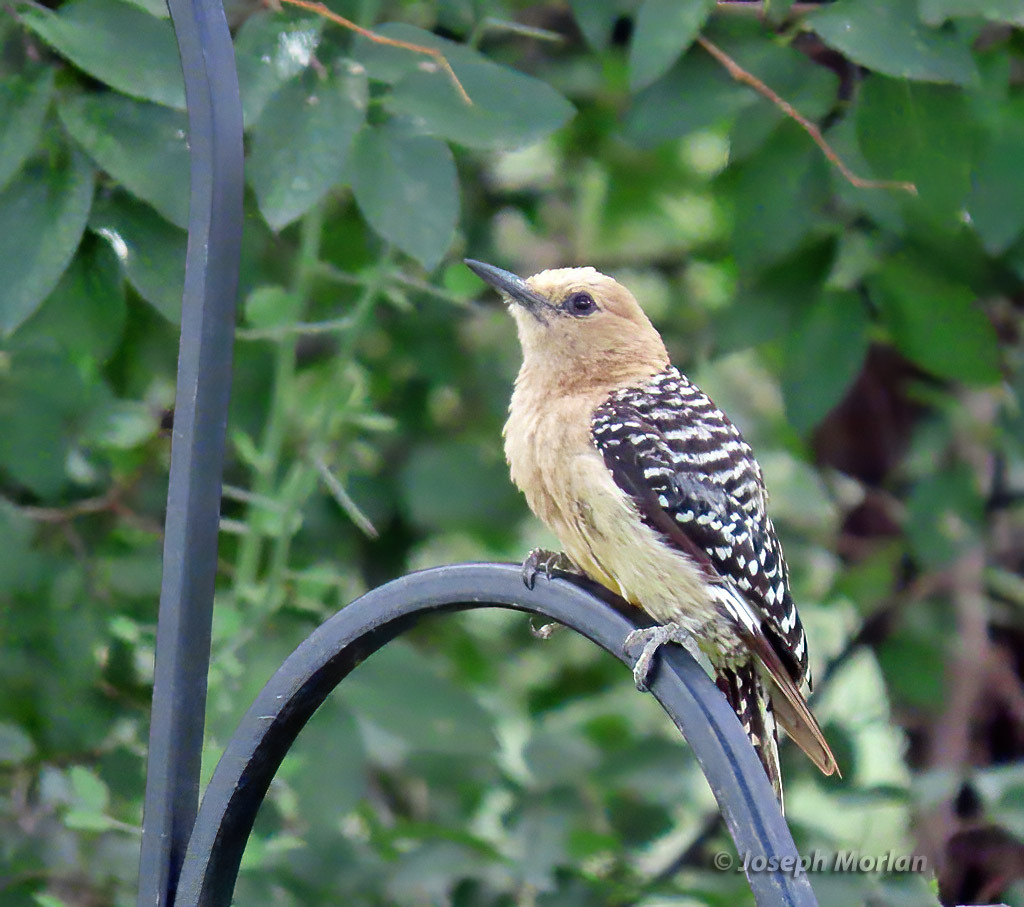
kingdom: Animalia
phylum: Chordata
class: Aves
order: Piciformes
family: Picidae
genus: Melanerpes
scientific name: Melanerpes uropygialis
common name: Gila woodpecker
